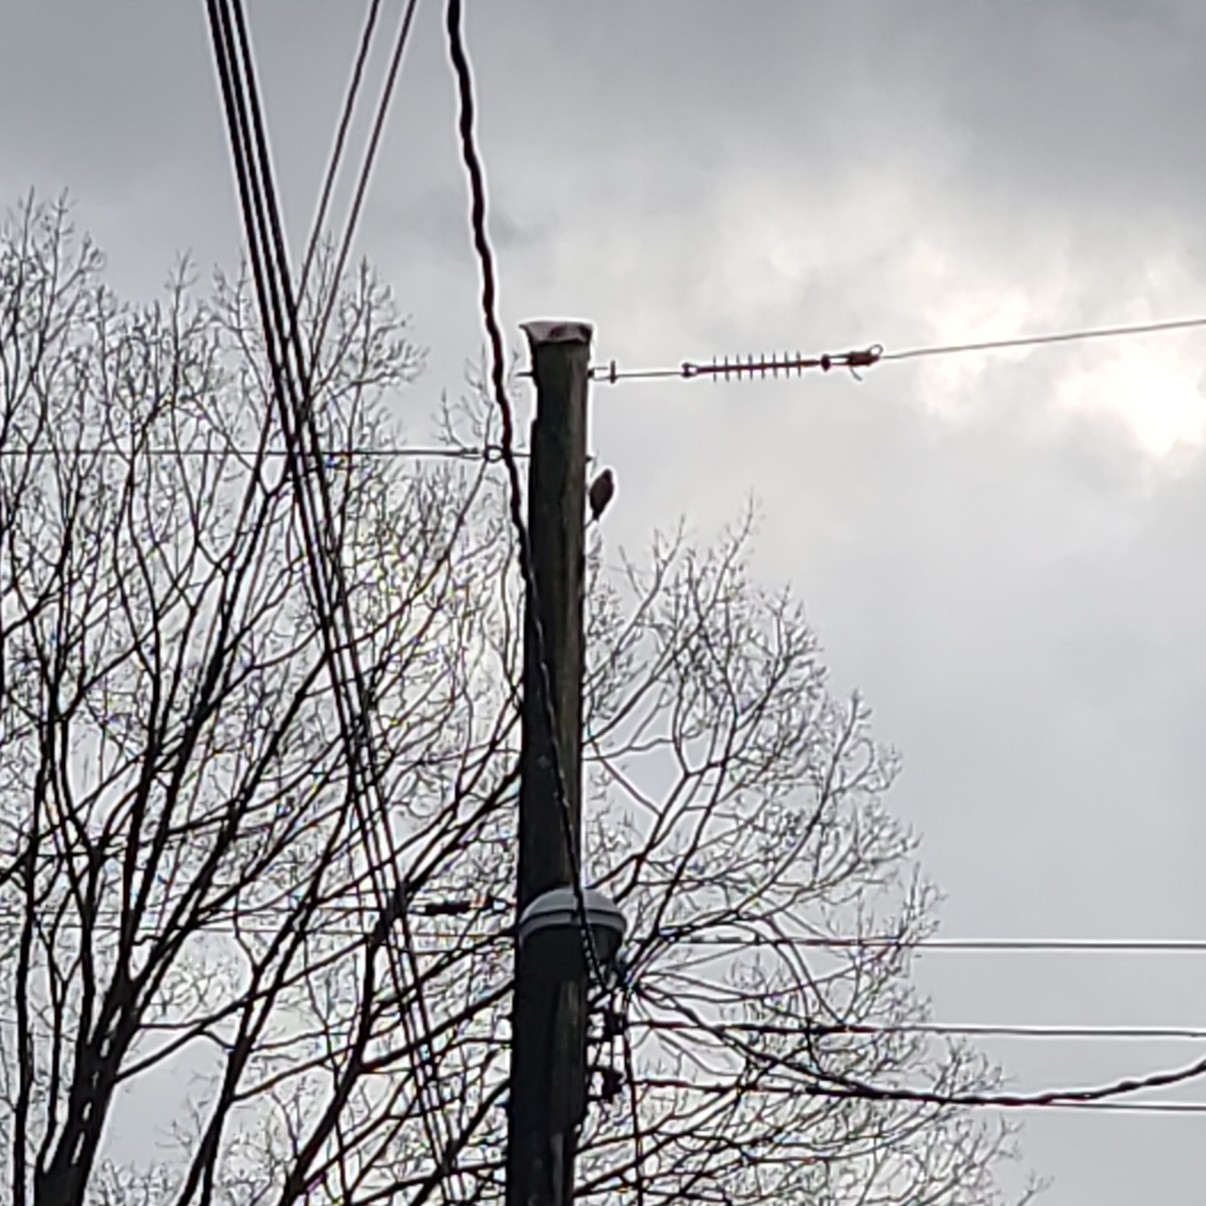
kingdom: Animalia
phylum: Chordata
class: Aves
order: Piciformes
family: Picidae
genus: Colaptes
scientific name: Colaptes auratus
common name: Northern flicker
